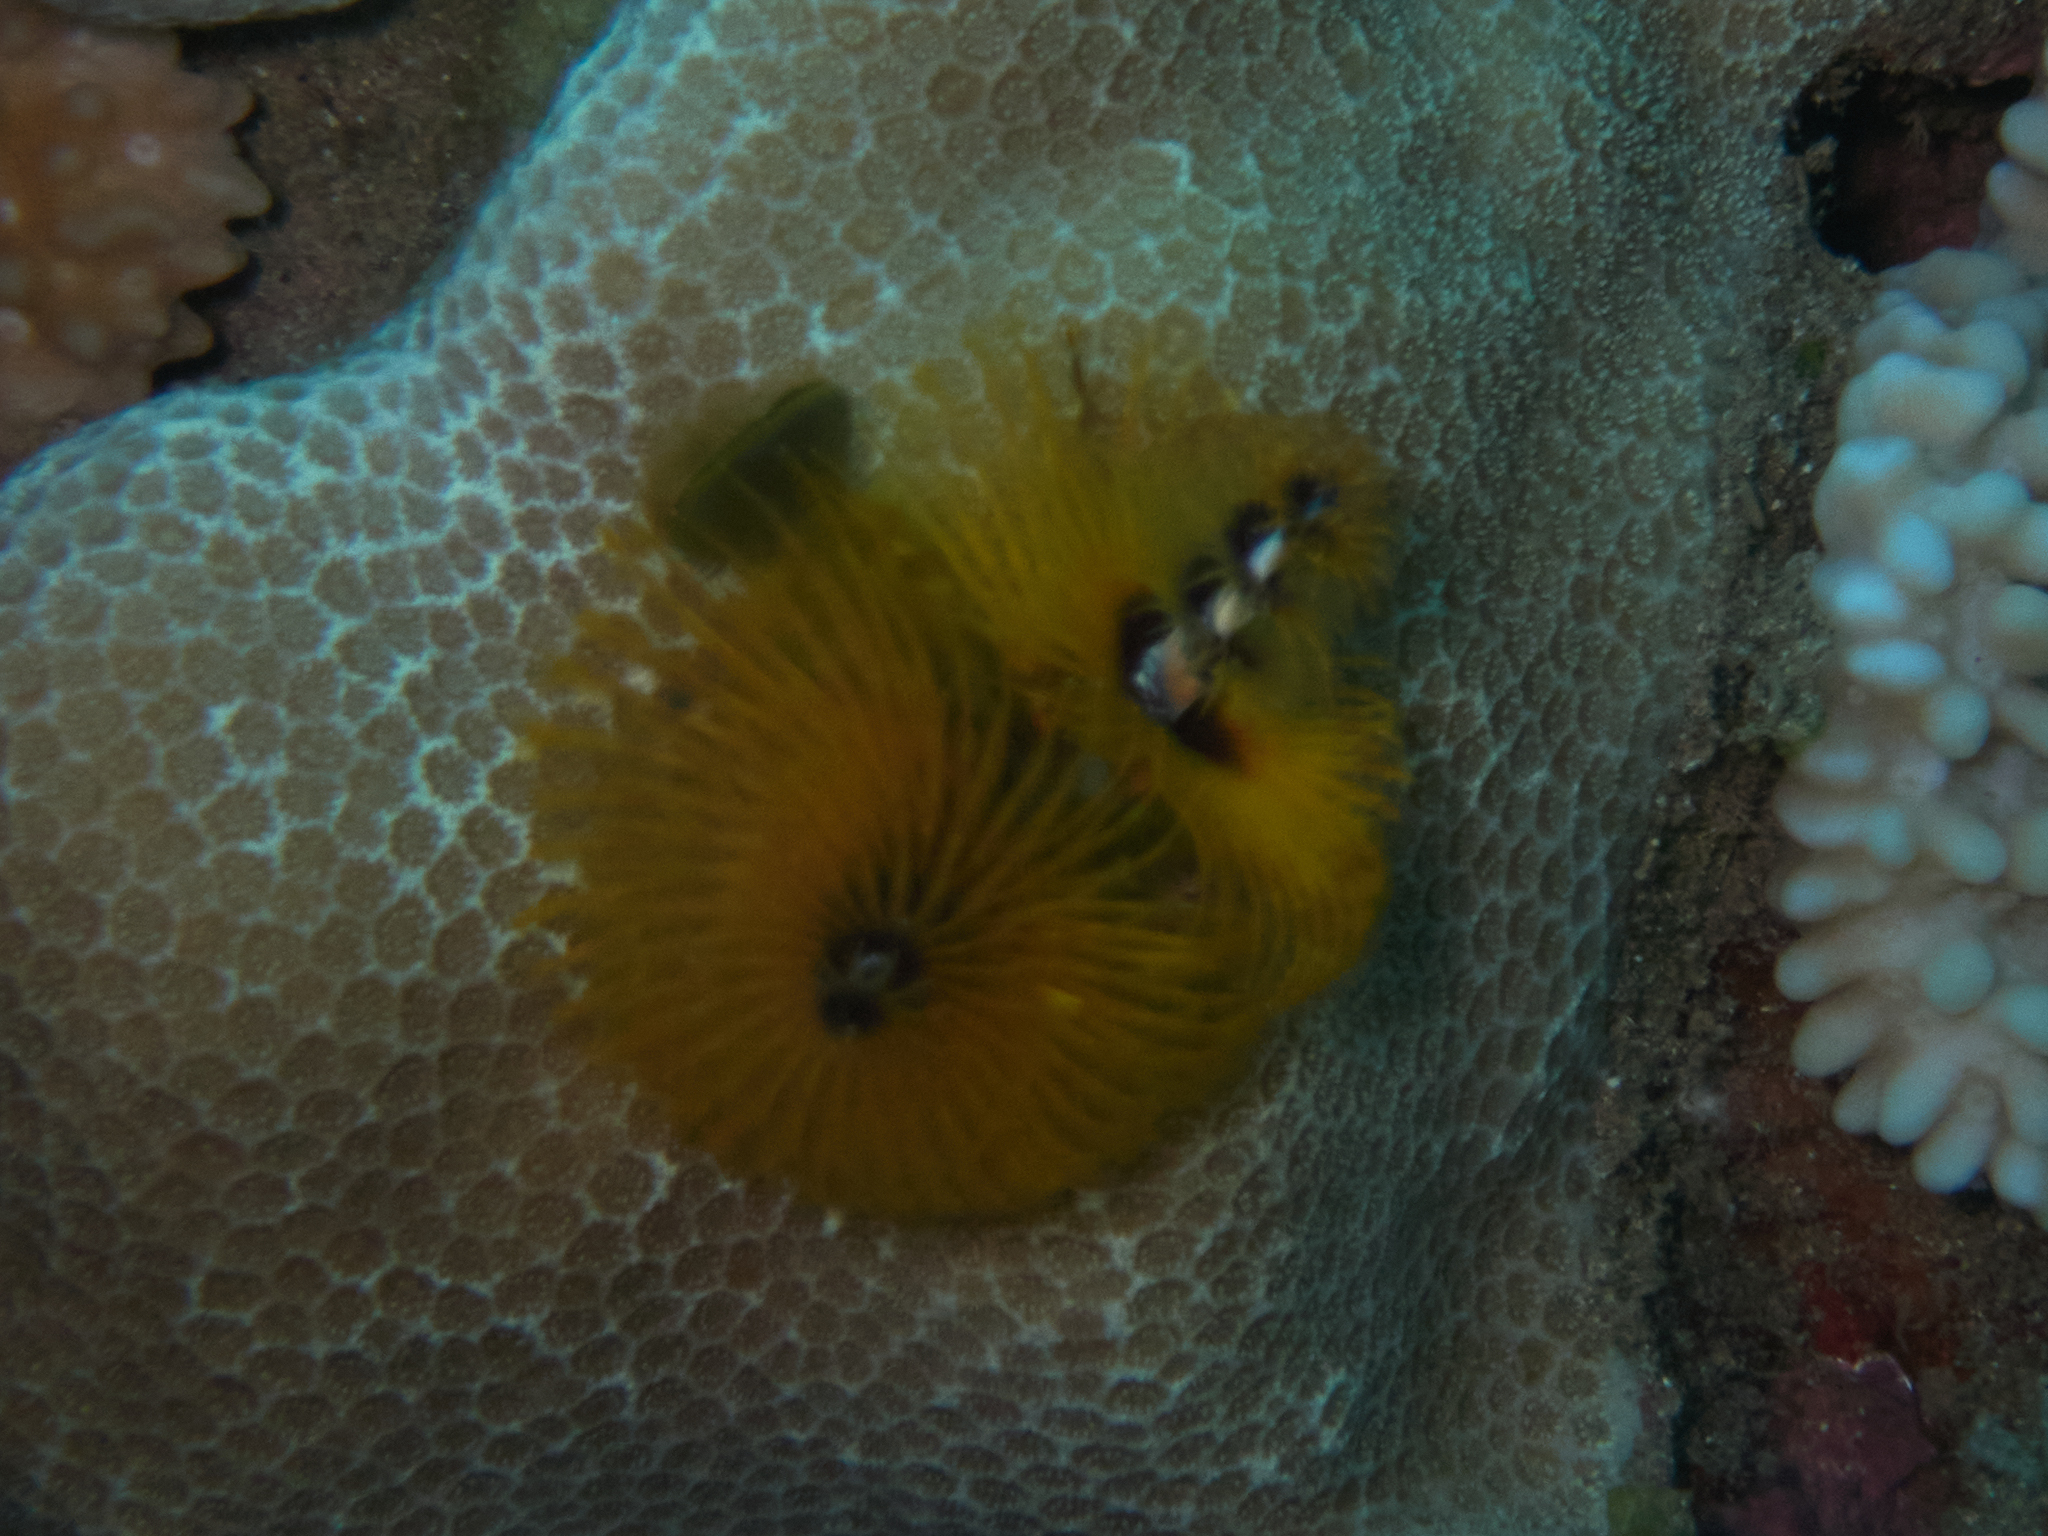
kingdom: Animalia
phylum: Annelida
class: Polychaeta
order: Sabellida
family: Serpulidae
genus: Spirobranchus
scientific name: Spirobranchus
